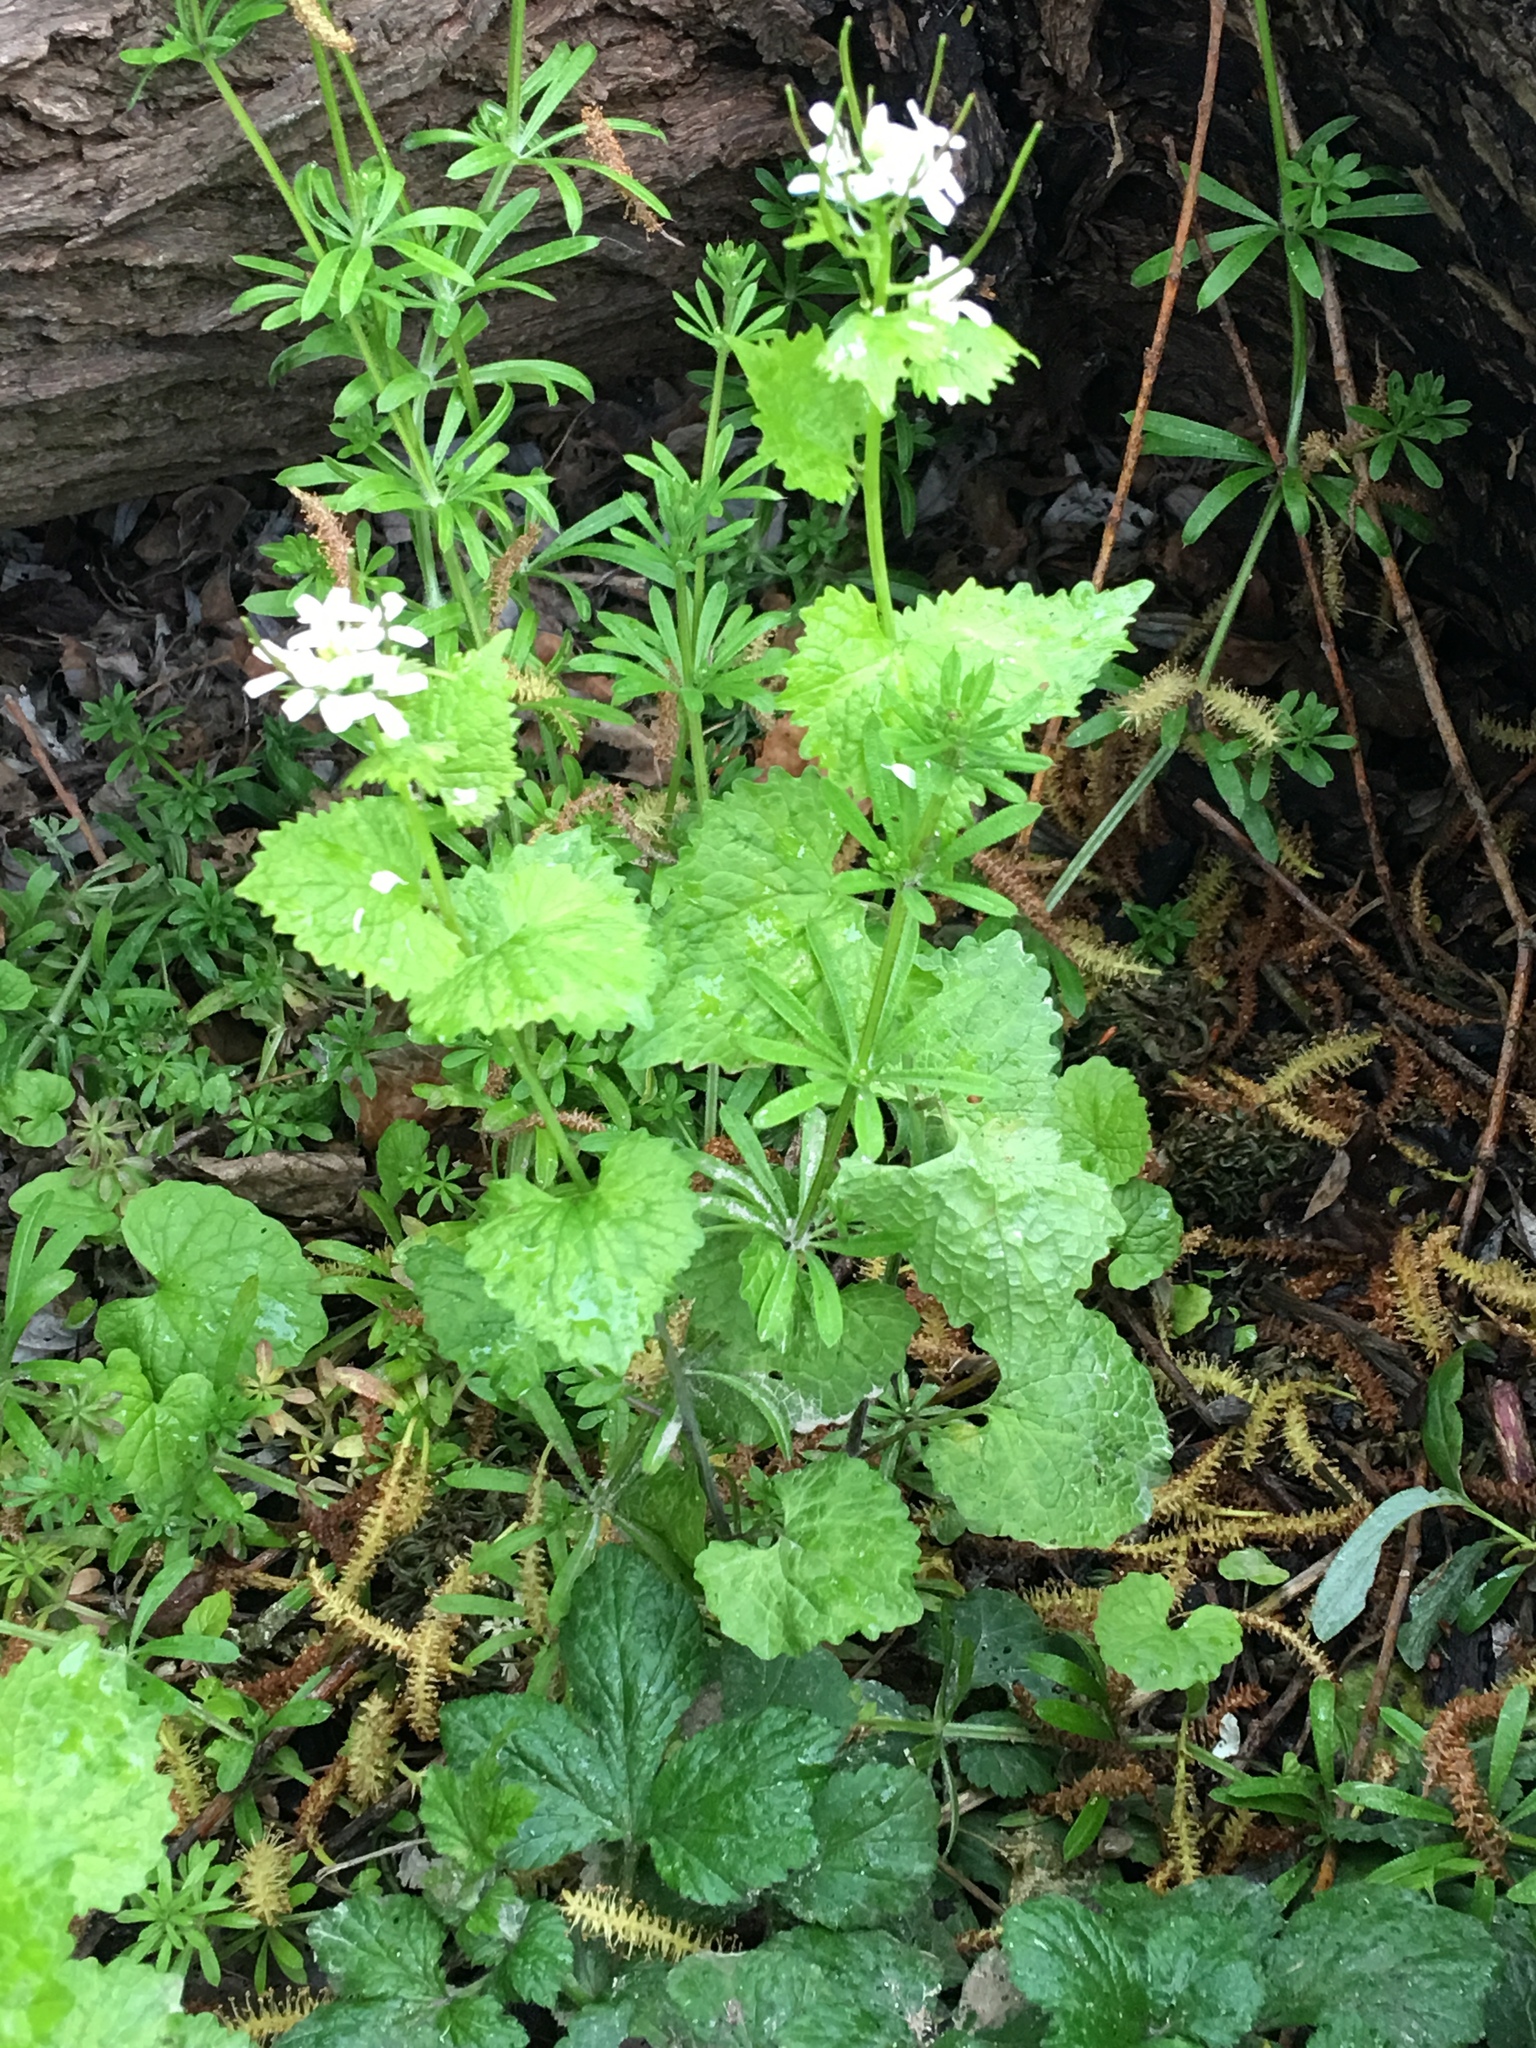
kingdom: Plantae
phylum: Tracheophyta
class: Magnoliopsida
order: Brassicales
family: Brassicaceae
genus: Alliaria
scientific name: Alliaria petiolata
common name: Garlic mustard
